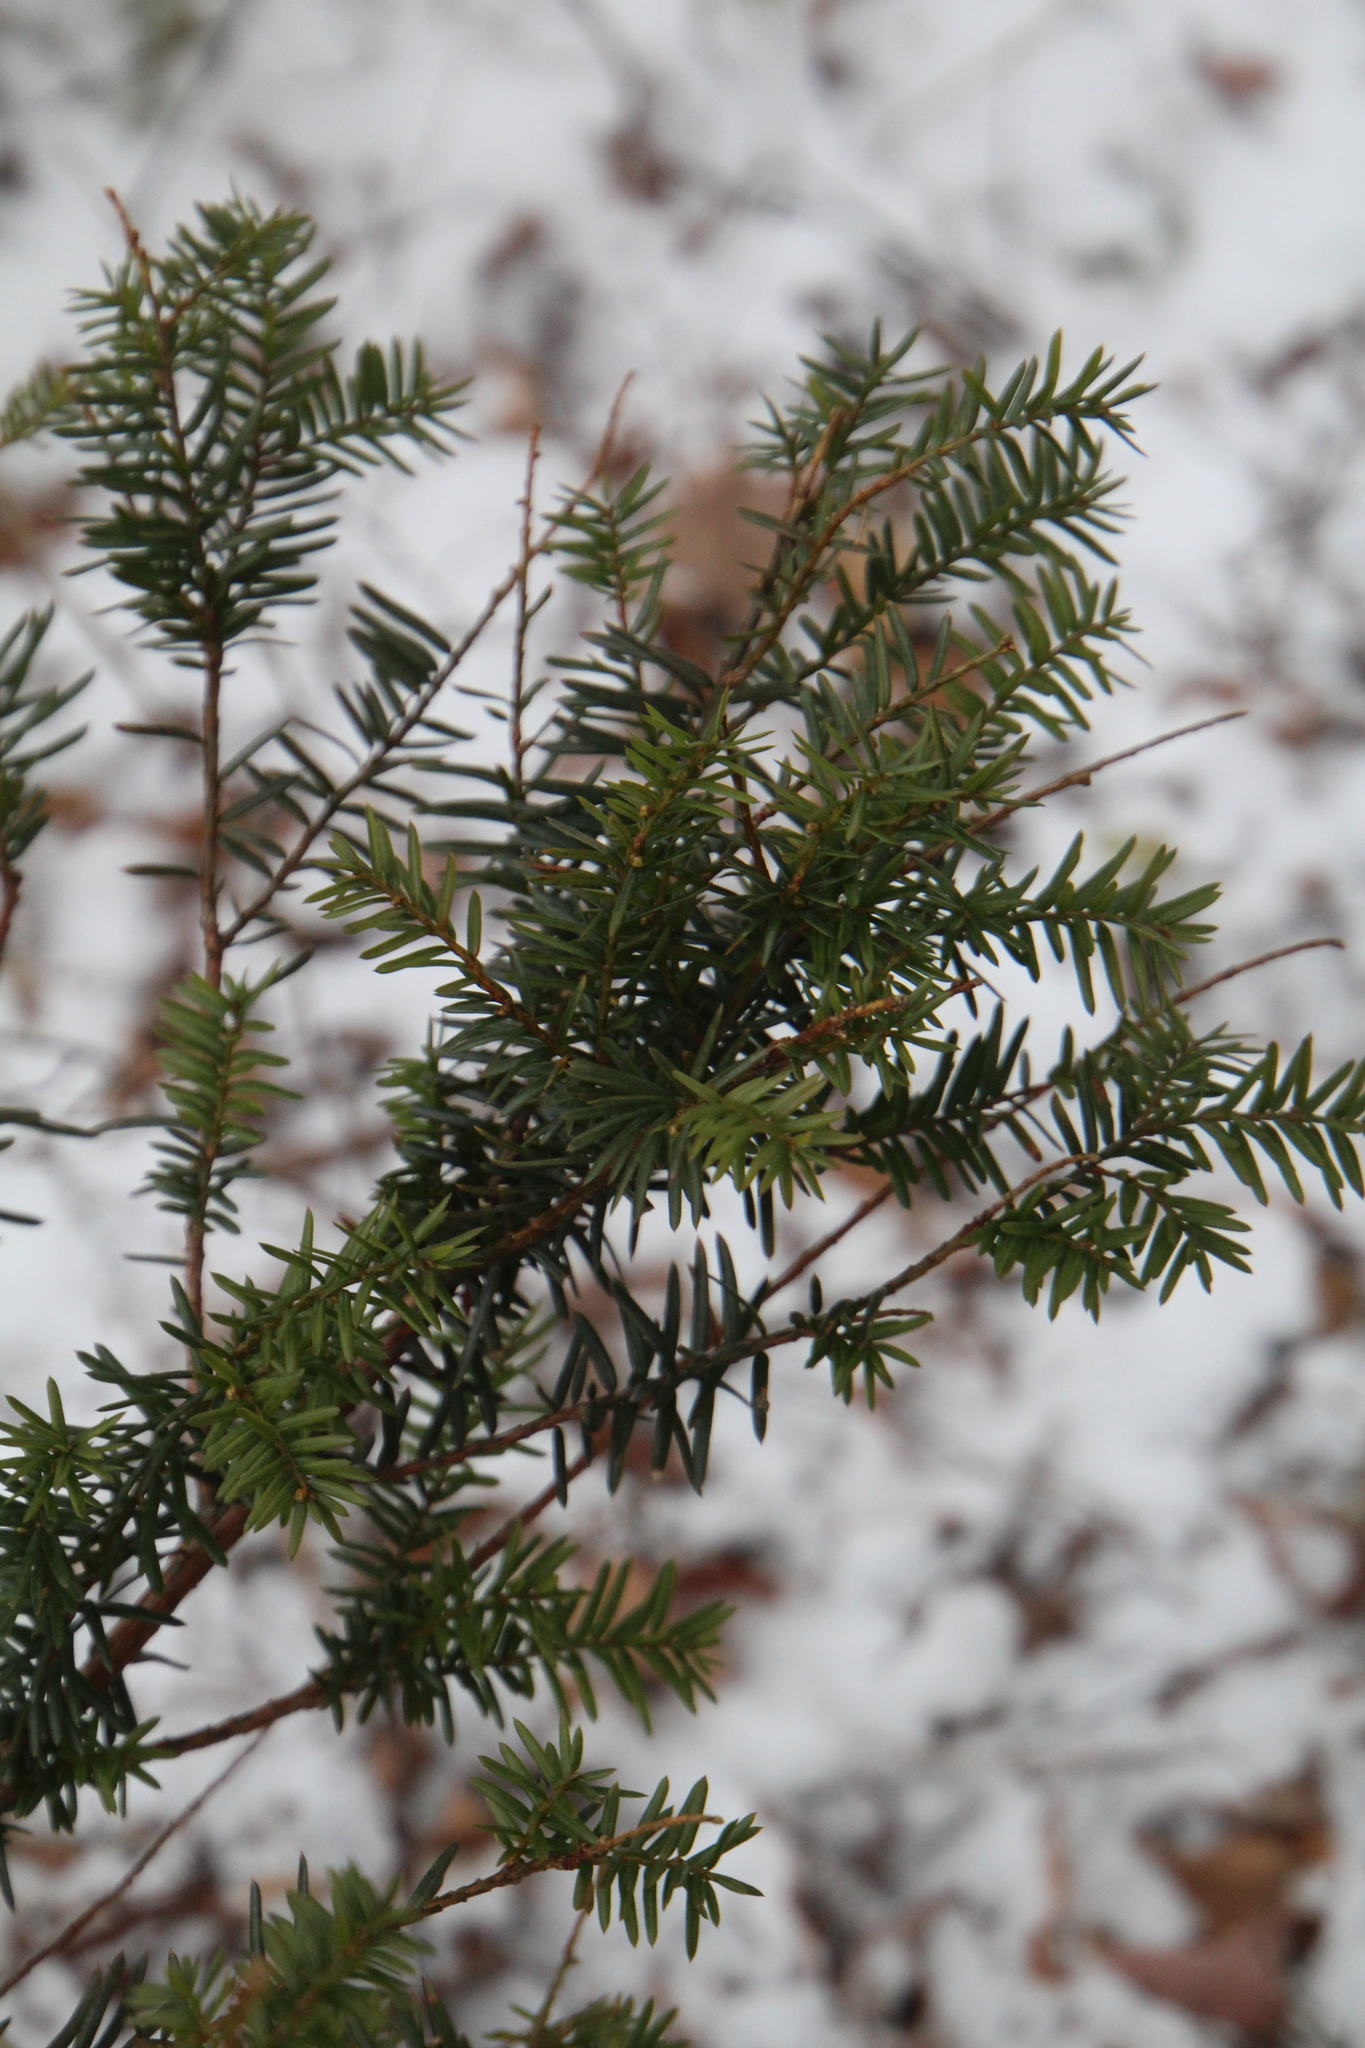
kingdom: Plantae
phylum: Tracheophyta
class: Pinopsida
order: Pinales
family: Taxaceae
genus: Taxus
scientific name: Taxus canadensis
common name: American yew
